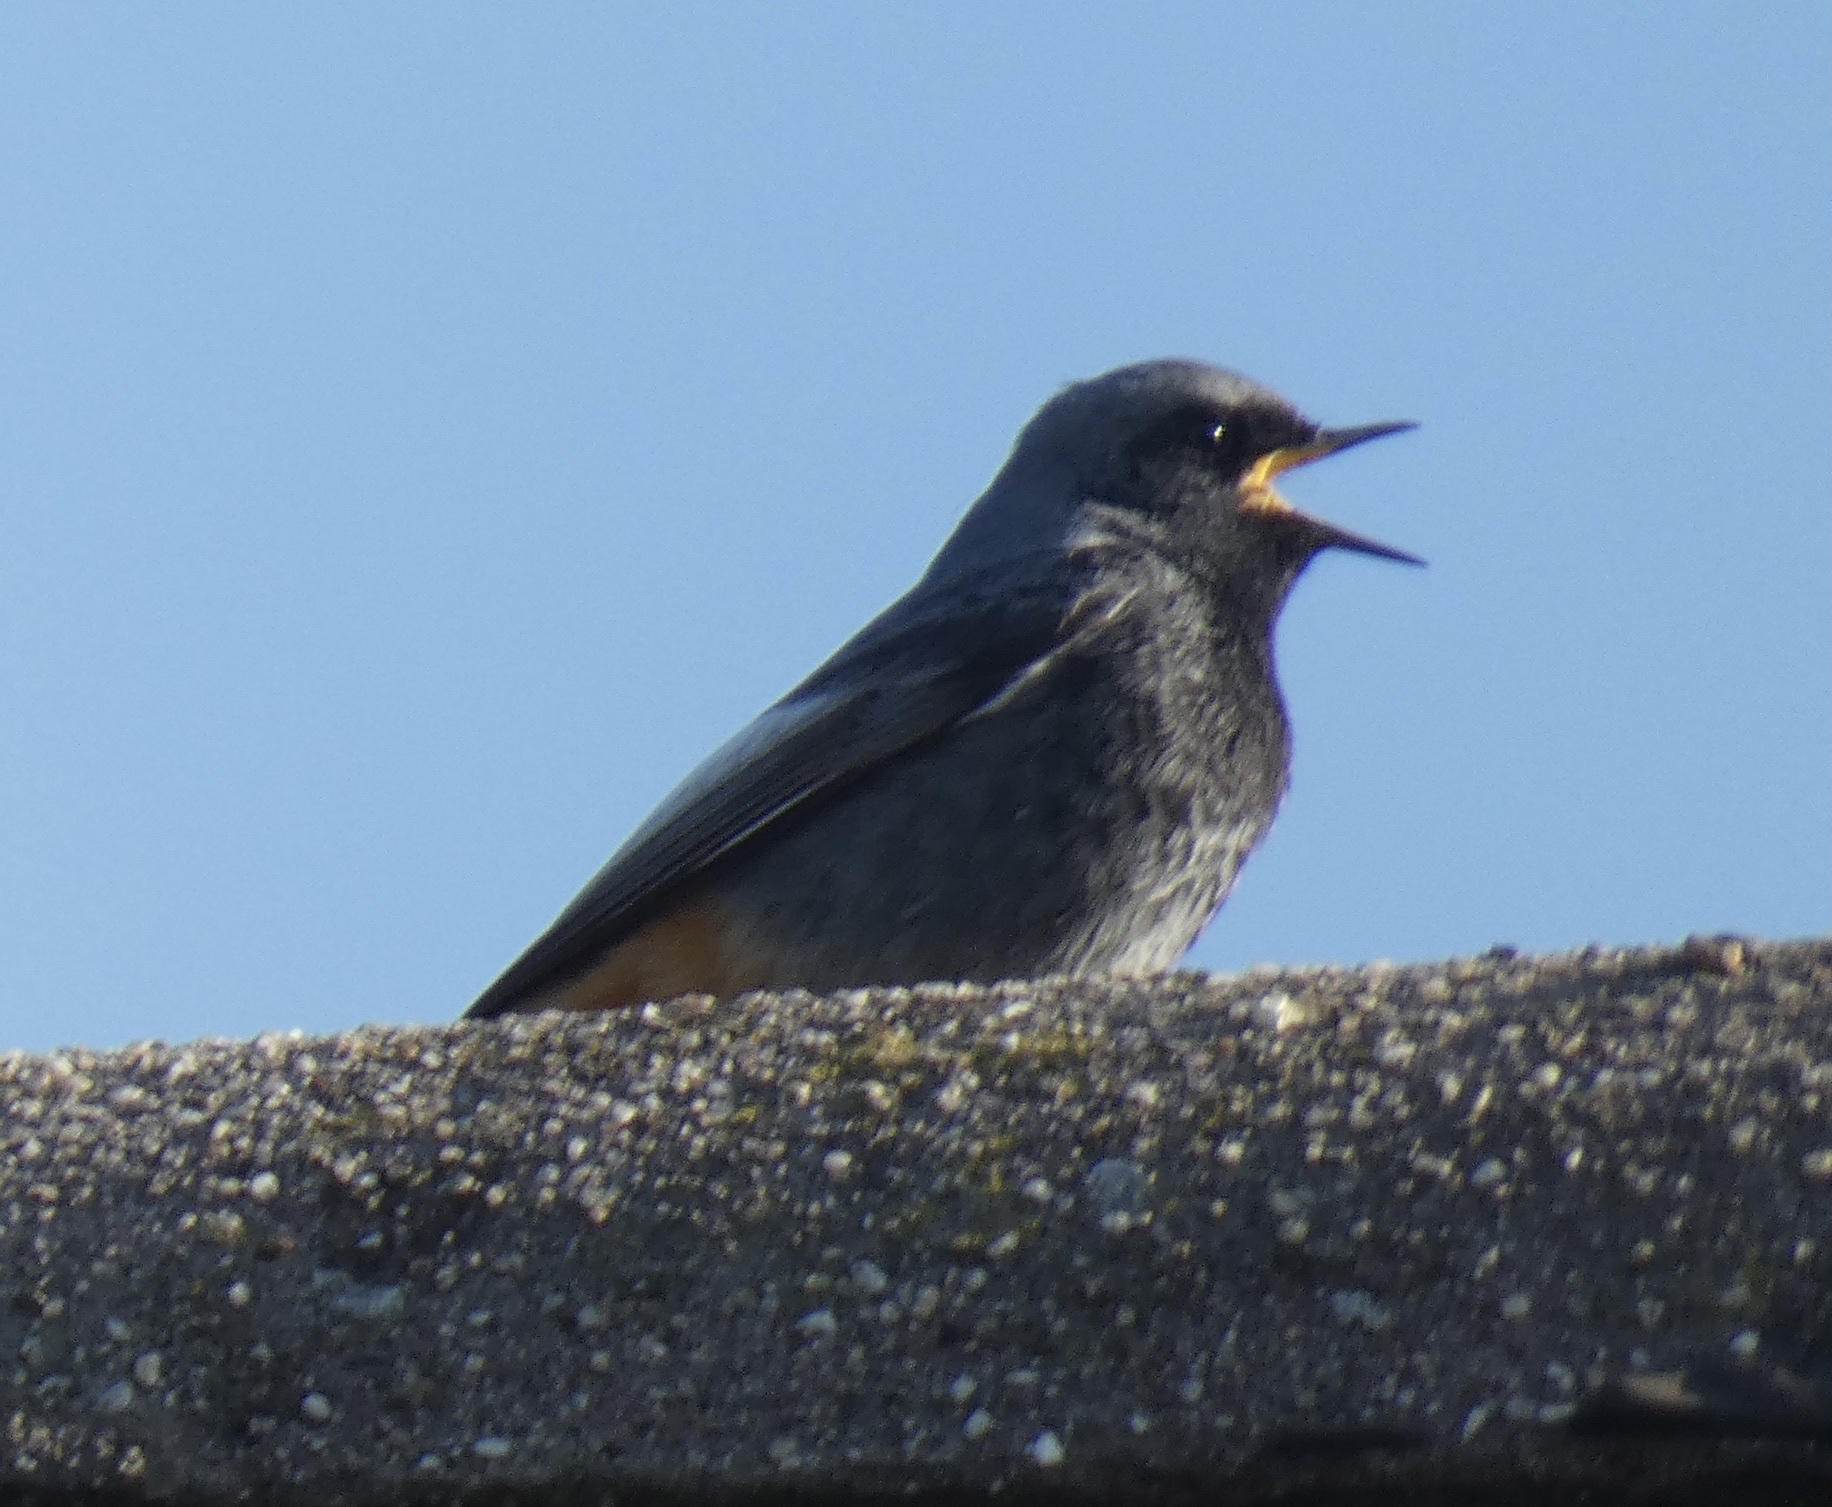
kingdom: Animalia
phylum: Chordata
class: Aves
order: Passeriformes
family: Muscicapidae
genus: Phoenicurus
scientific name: Phoenicurus ochruros
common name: Black redstart
